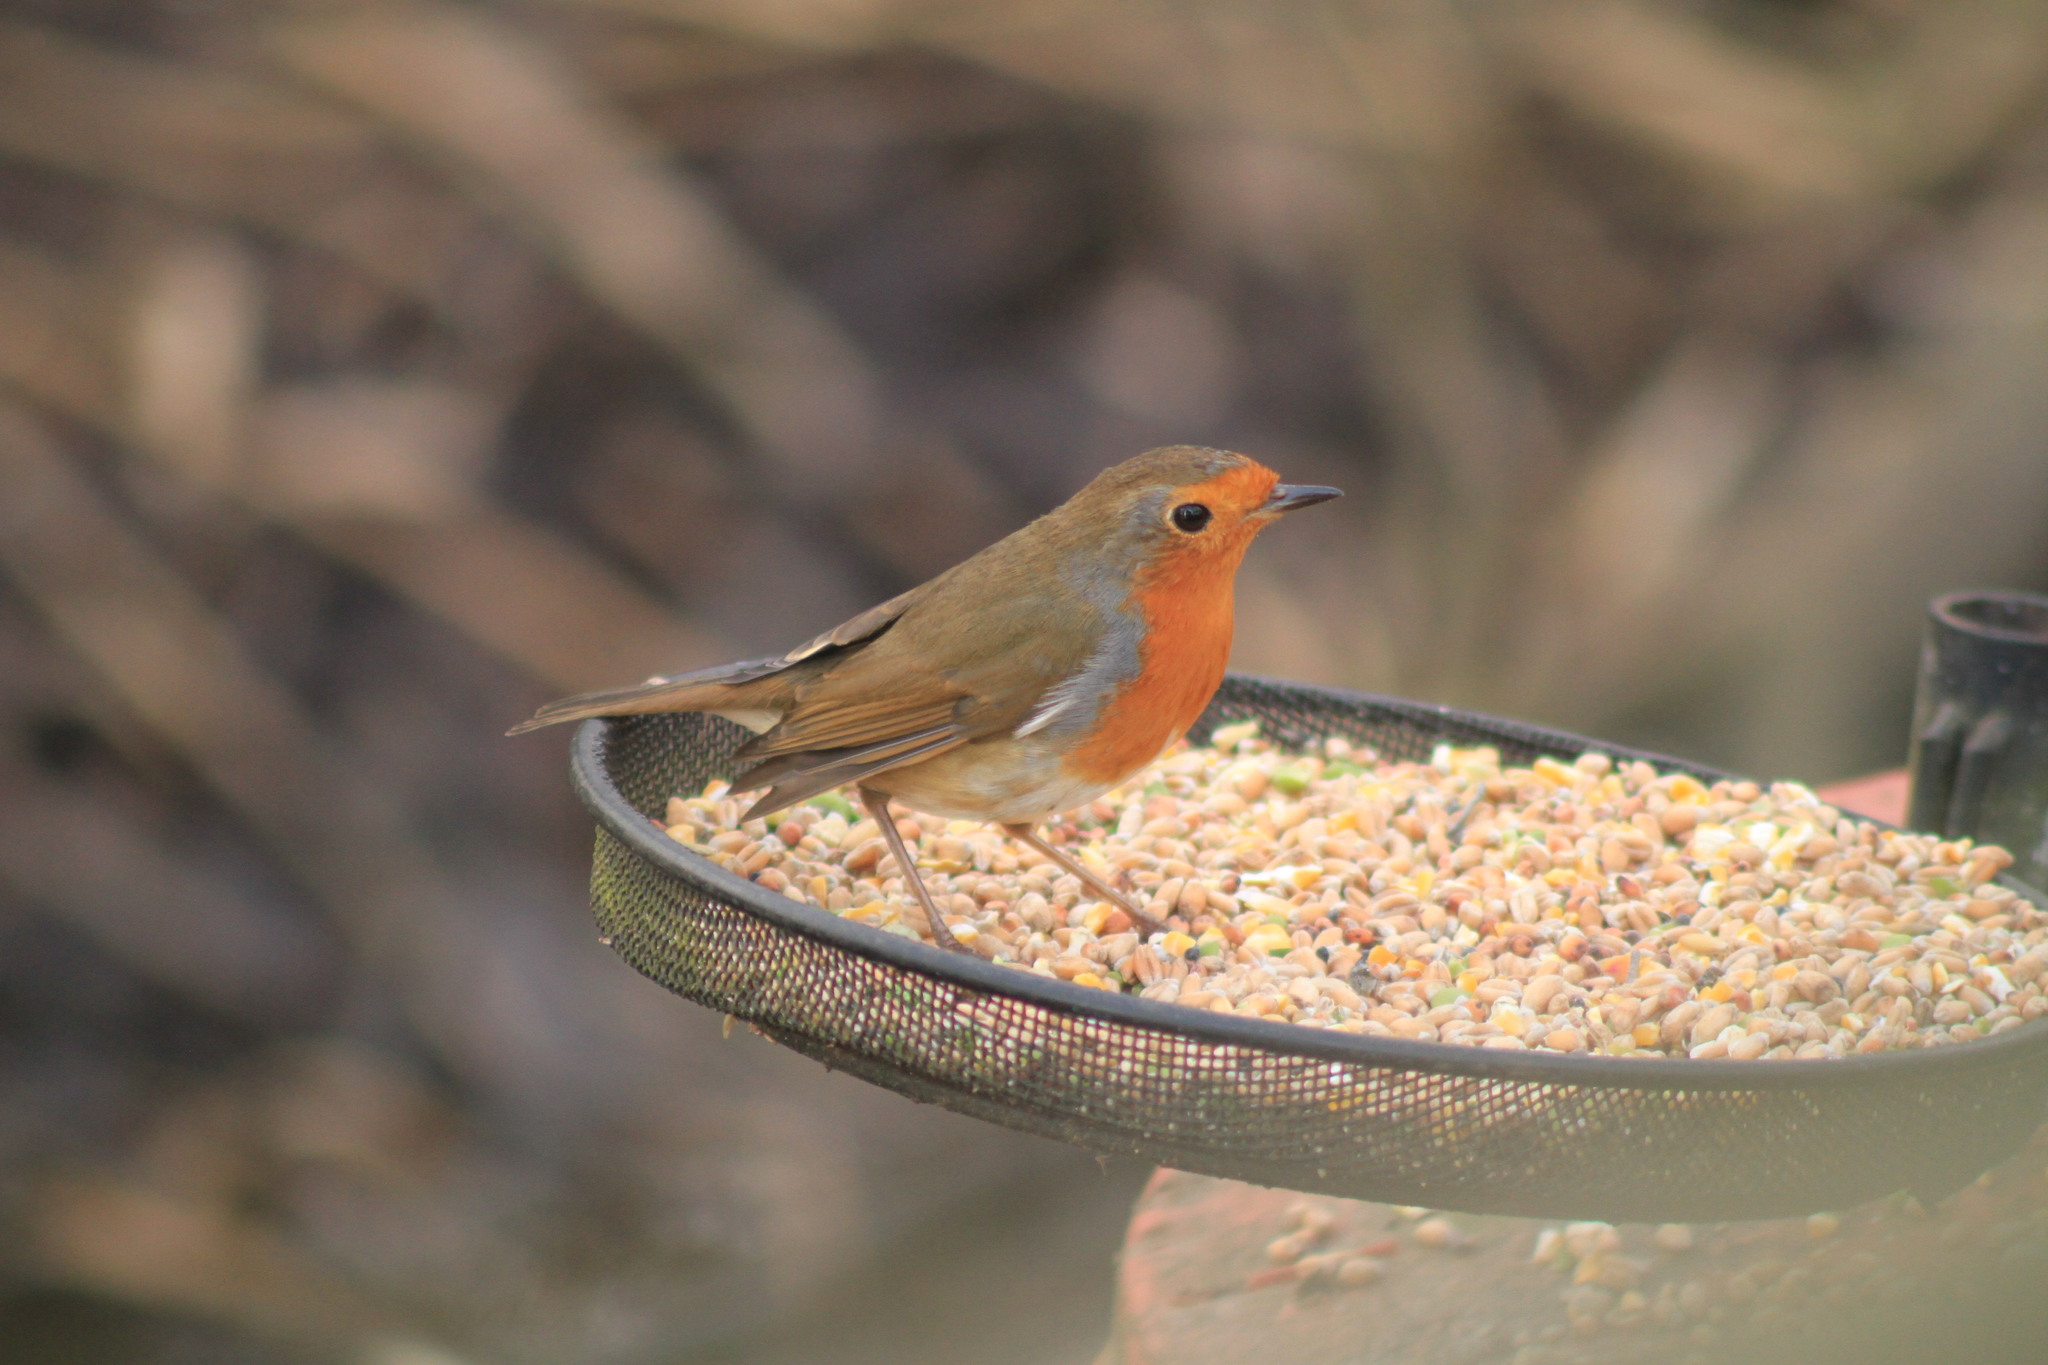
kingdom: Animalia
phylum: Chordata
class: Aves
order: Passeriformes
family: Muscicapidae
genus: Erithacus
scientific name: Erithacus rubecula
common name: European robin
